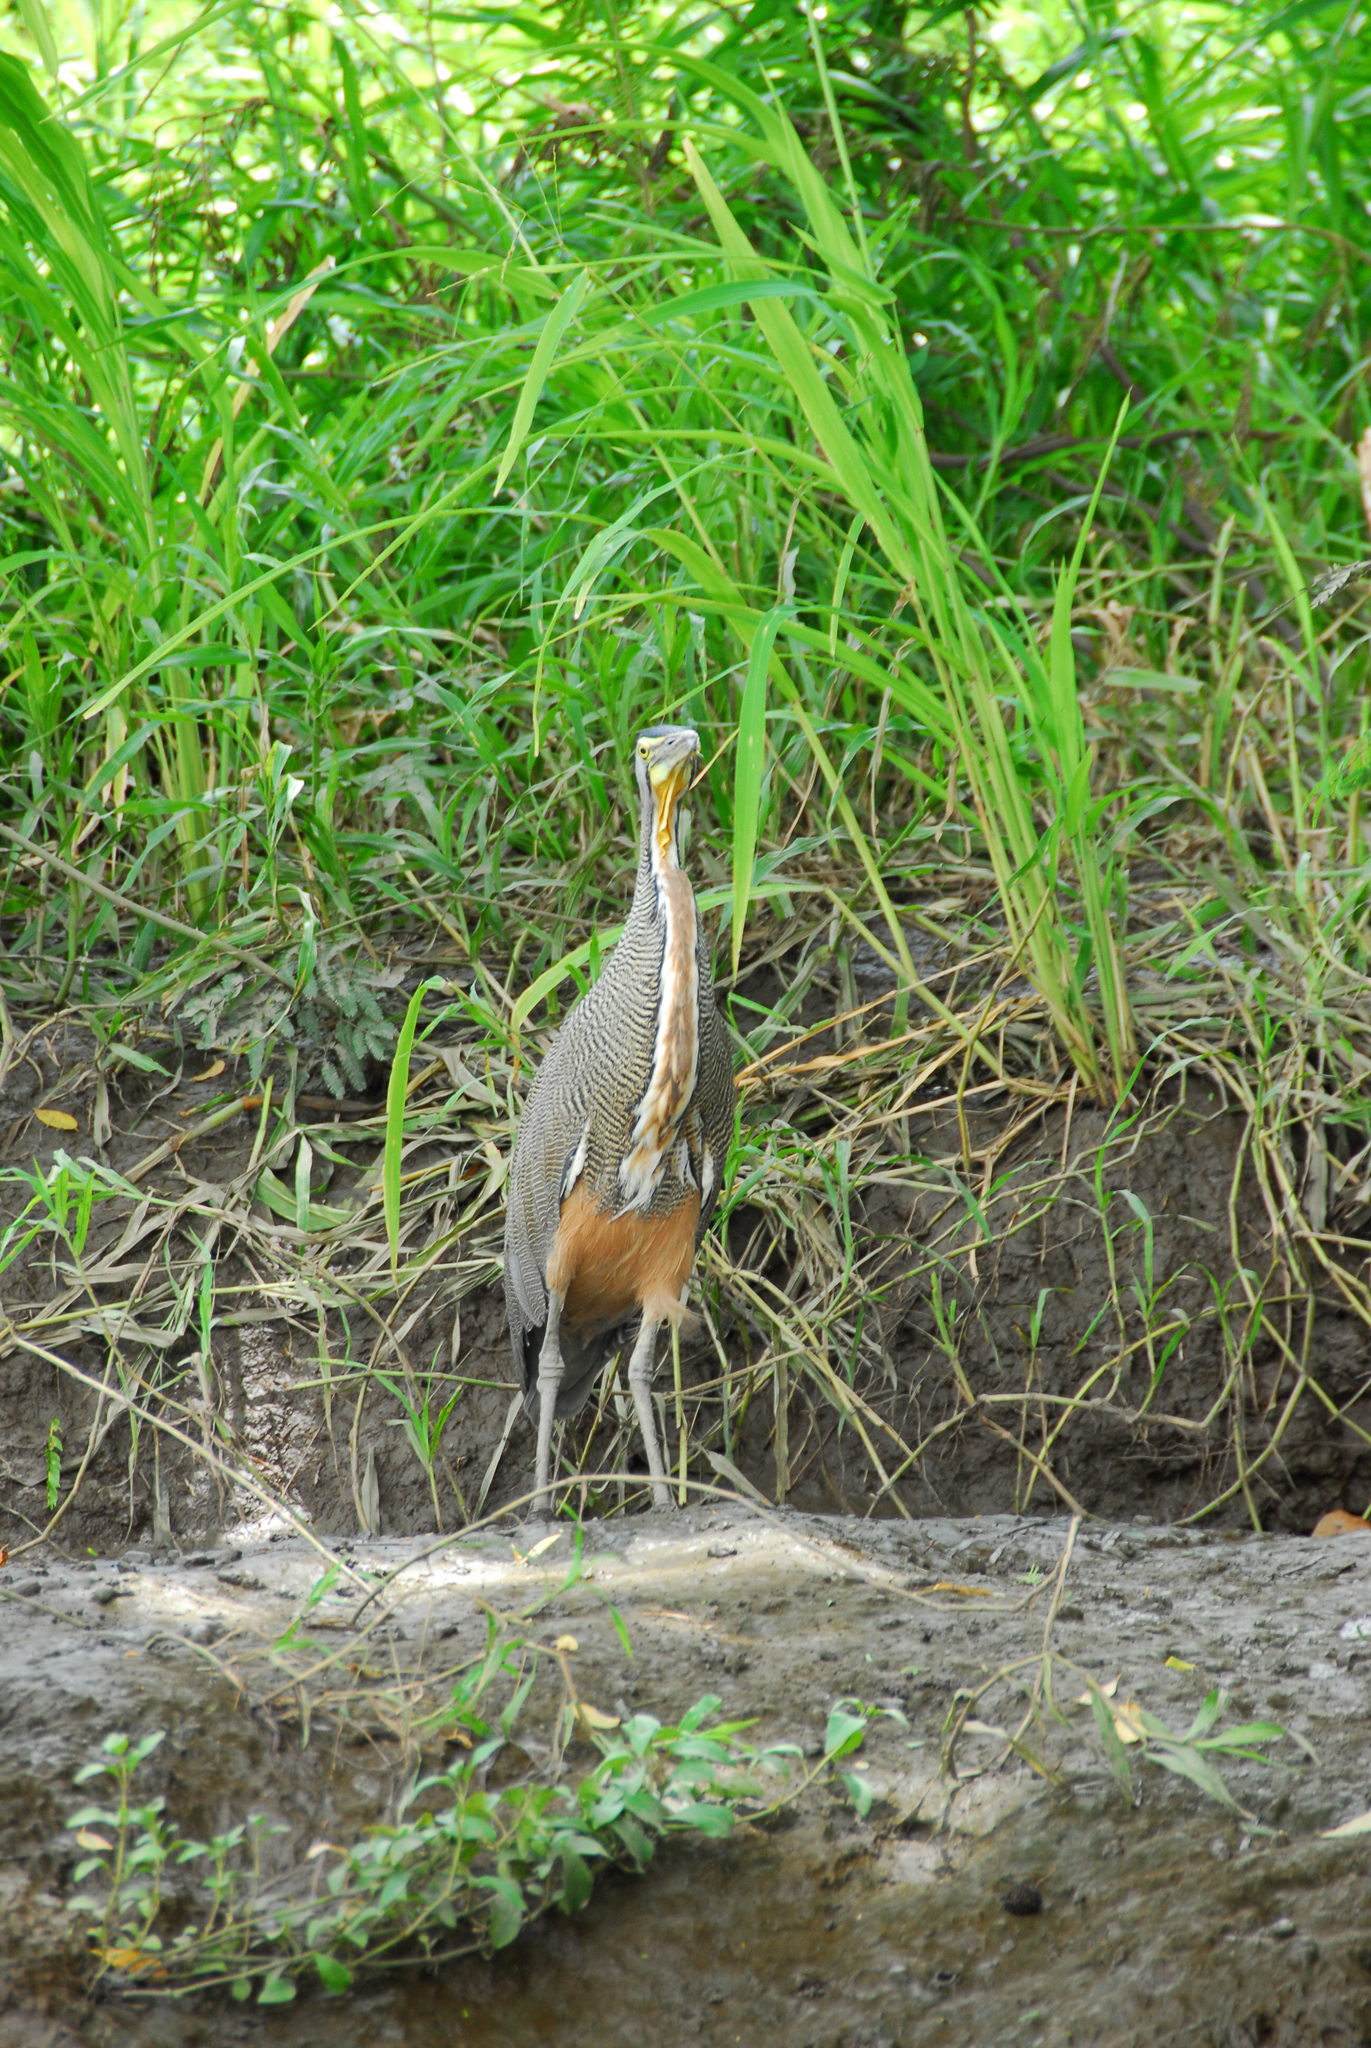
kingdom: Animalia
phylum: Chordata
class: Aves
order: Pelecaniformes
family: Ardeidae
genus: Tigrisoma
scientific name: Tigrisoma mexicanum
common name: Bare-throated tiger-heron
